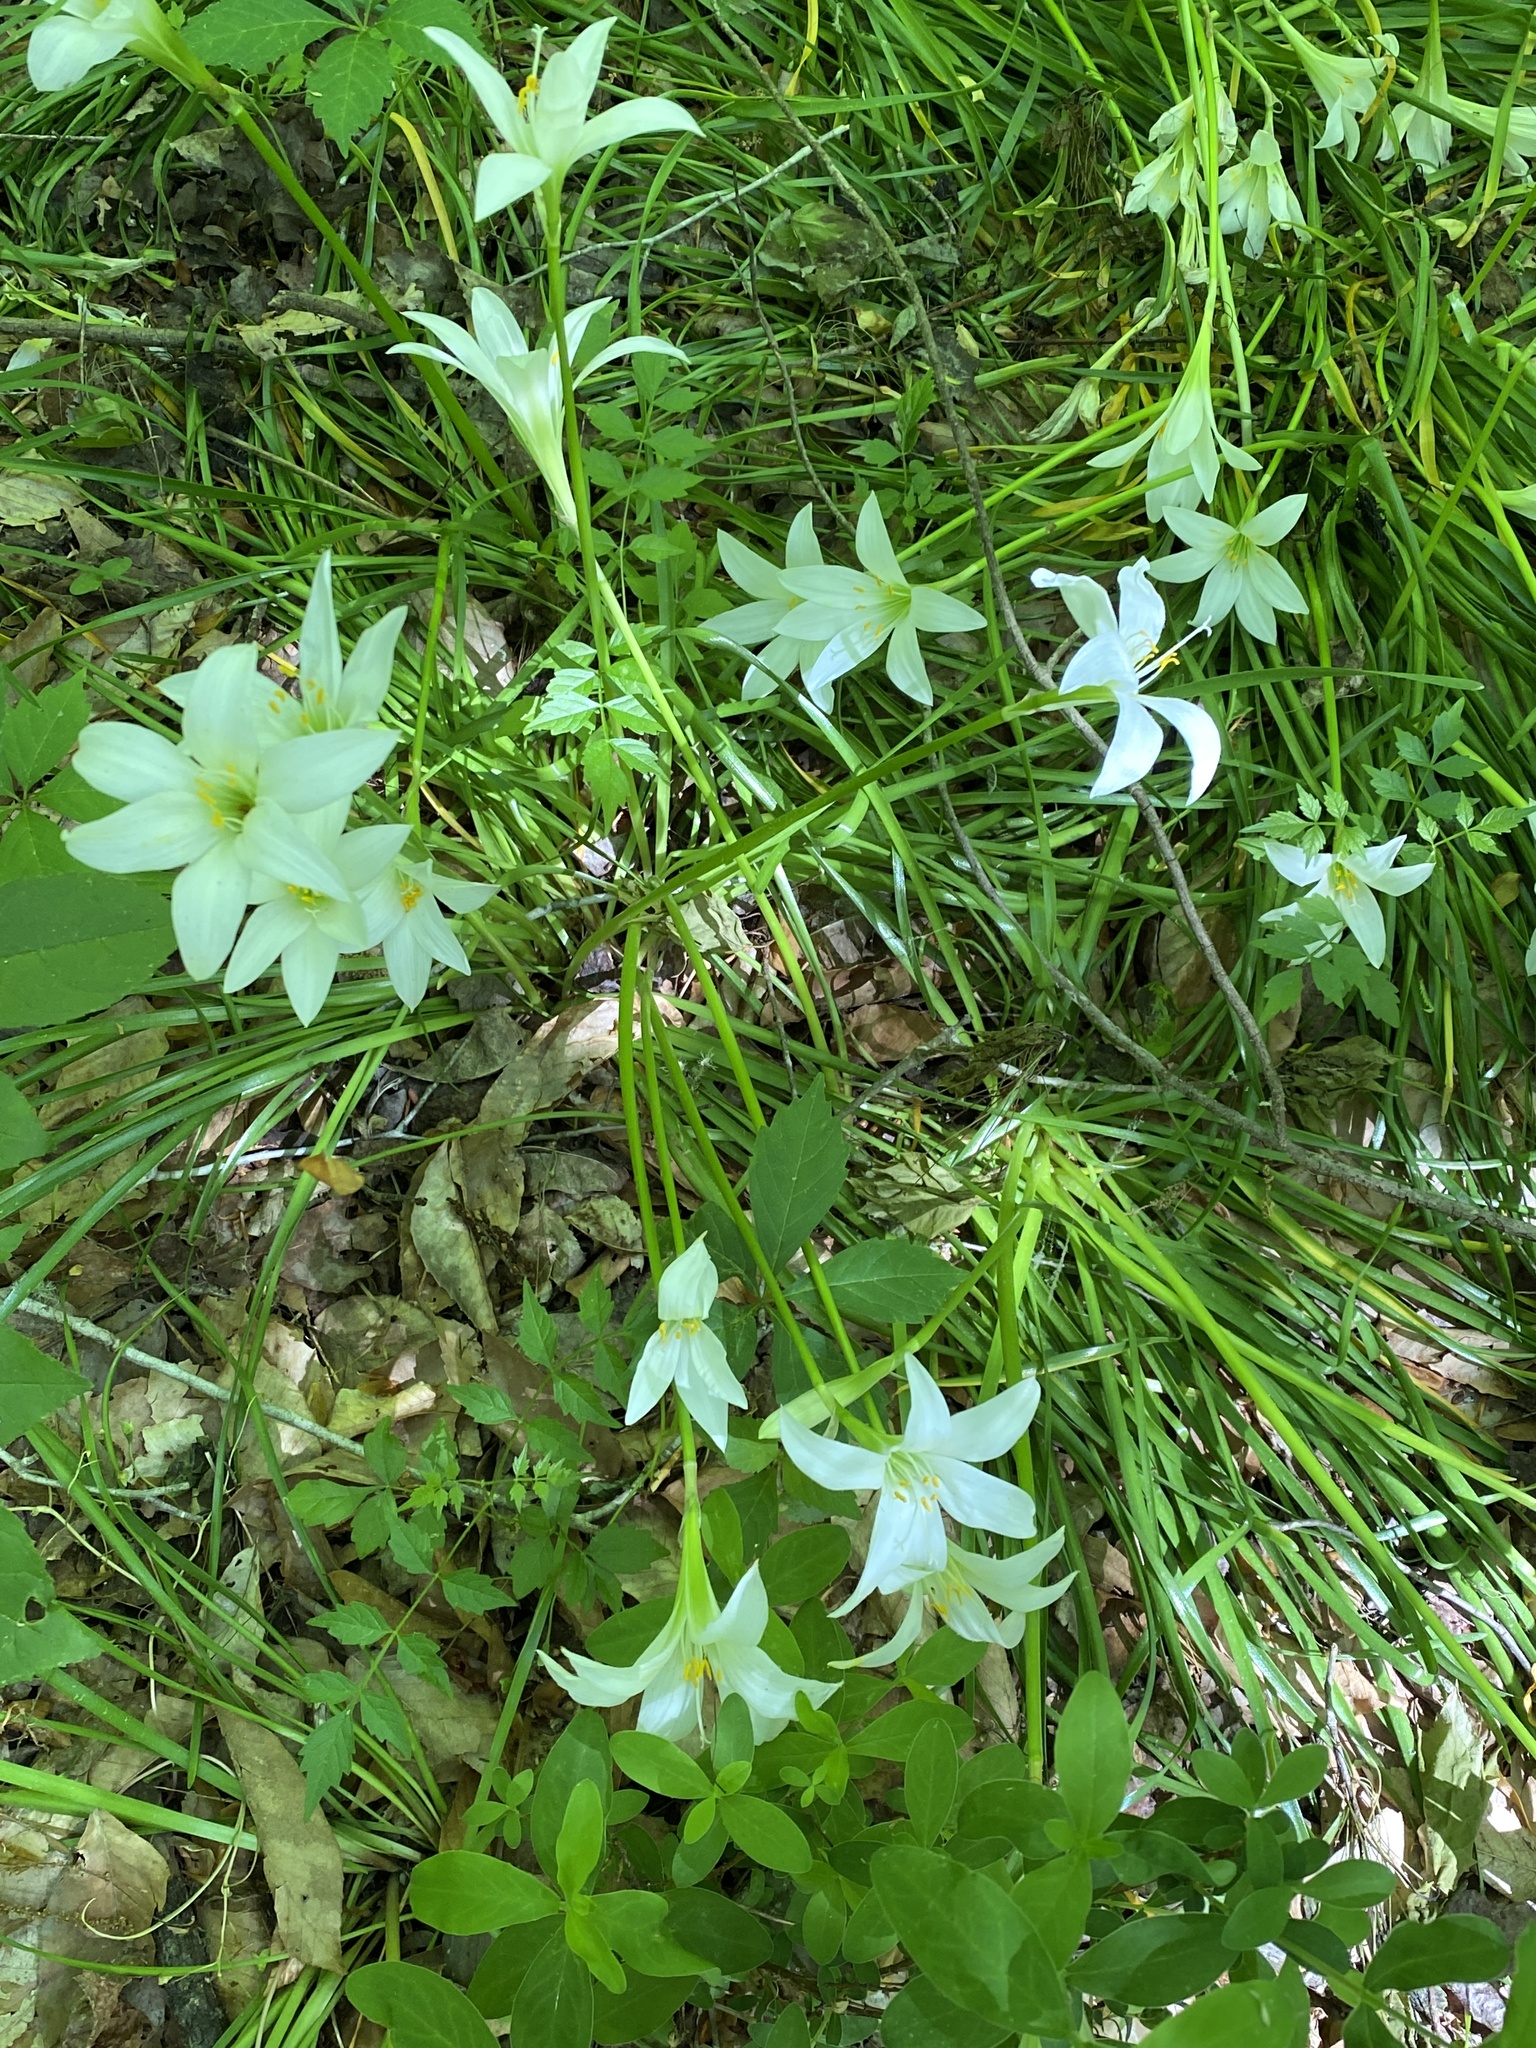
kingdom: Plantae
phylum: Tracheophyta
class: Liliopsida
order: Asparagales
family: Amaryllidaceae
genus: Zephyranthes
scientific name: Zephyranthes atamasco
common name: Atamasco lily
